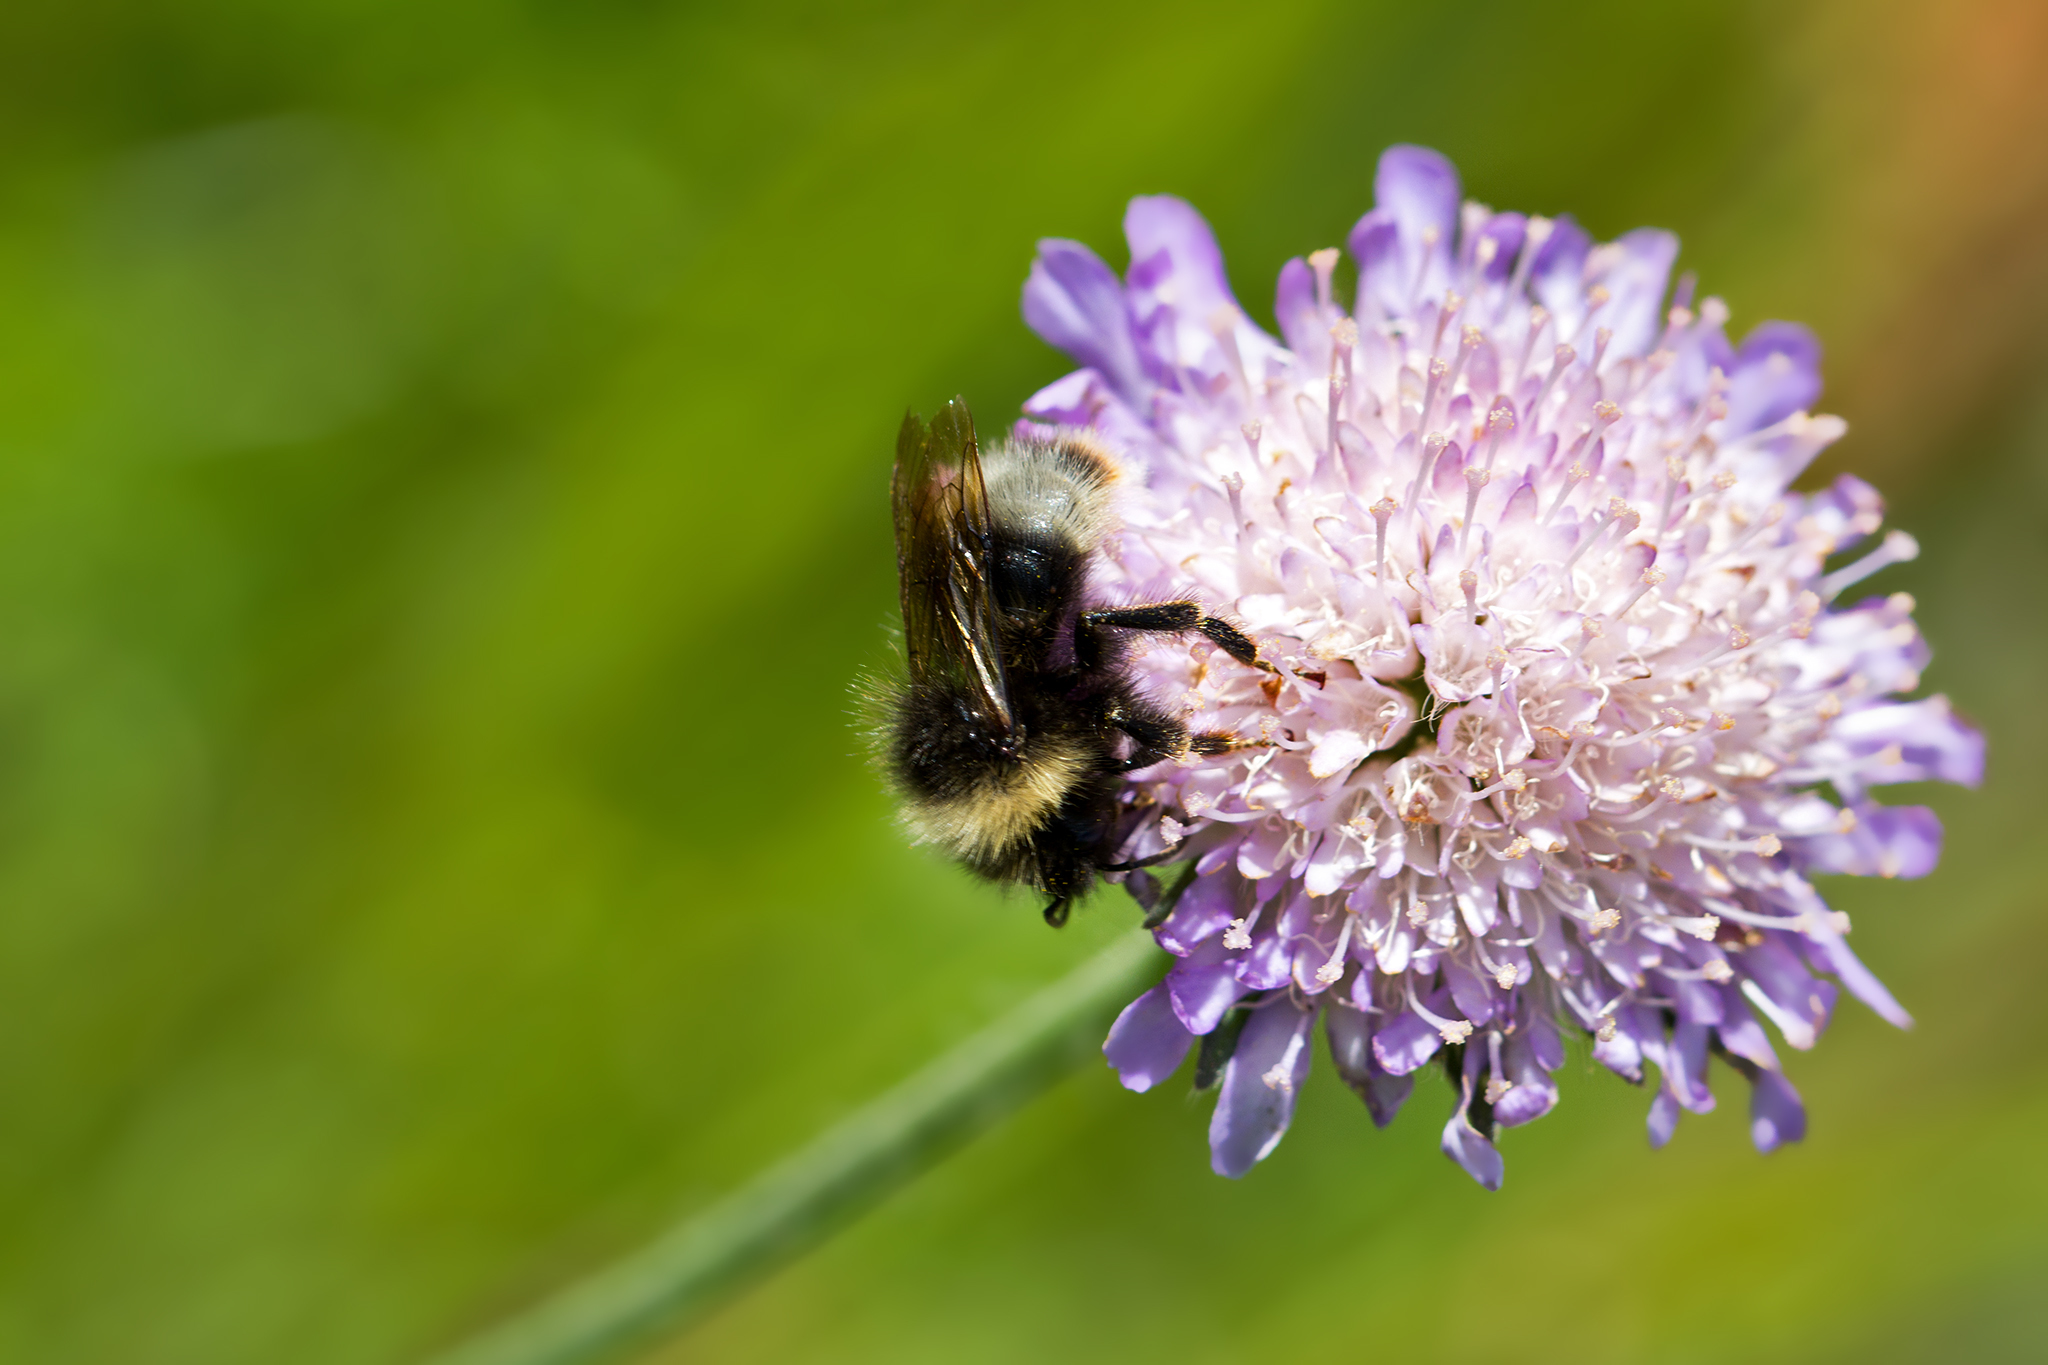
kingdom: Plantae
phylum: Tracheophyta
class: Magnoliopsida
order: Dipsacales
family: Caprifoliaceae
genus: Knautia
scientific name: Knautia arvensis
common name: Field scabiosa
